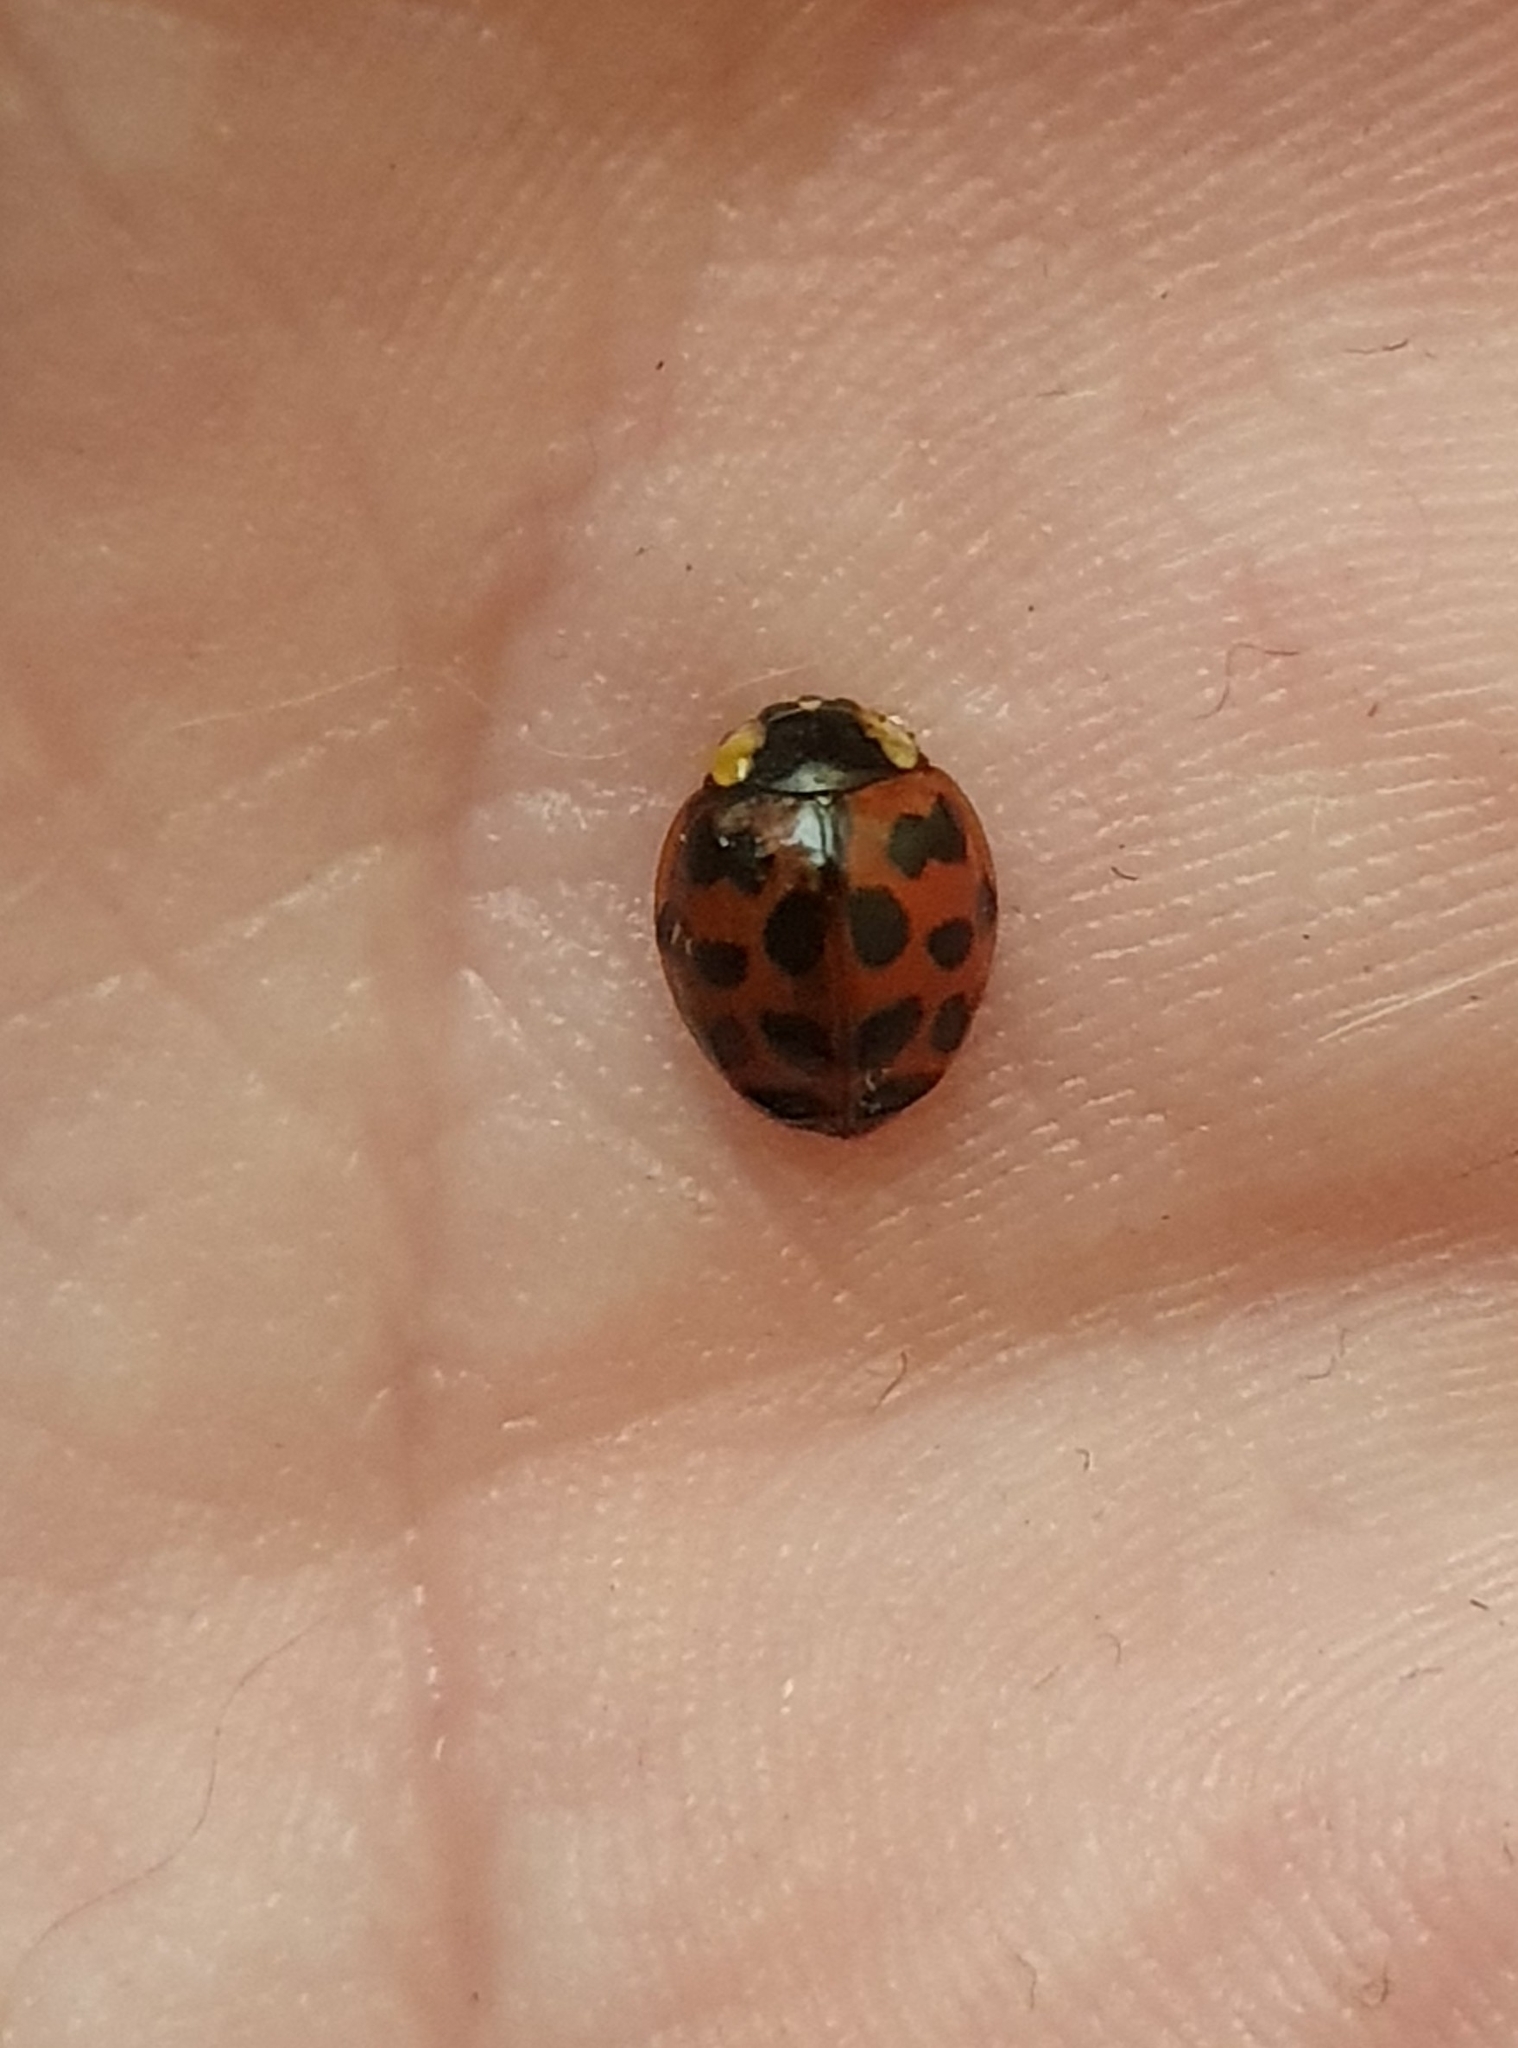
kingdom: Animalia
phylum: Arthropoda
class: Insecta
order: Coleoptera
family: Coccinellidae
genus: Harmonia
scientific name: Harmonia axyridis
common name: Harlequin ladybird
